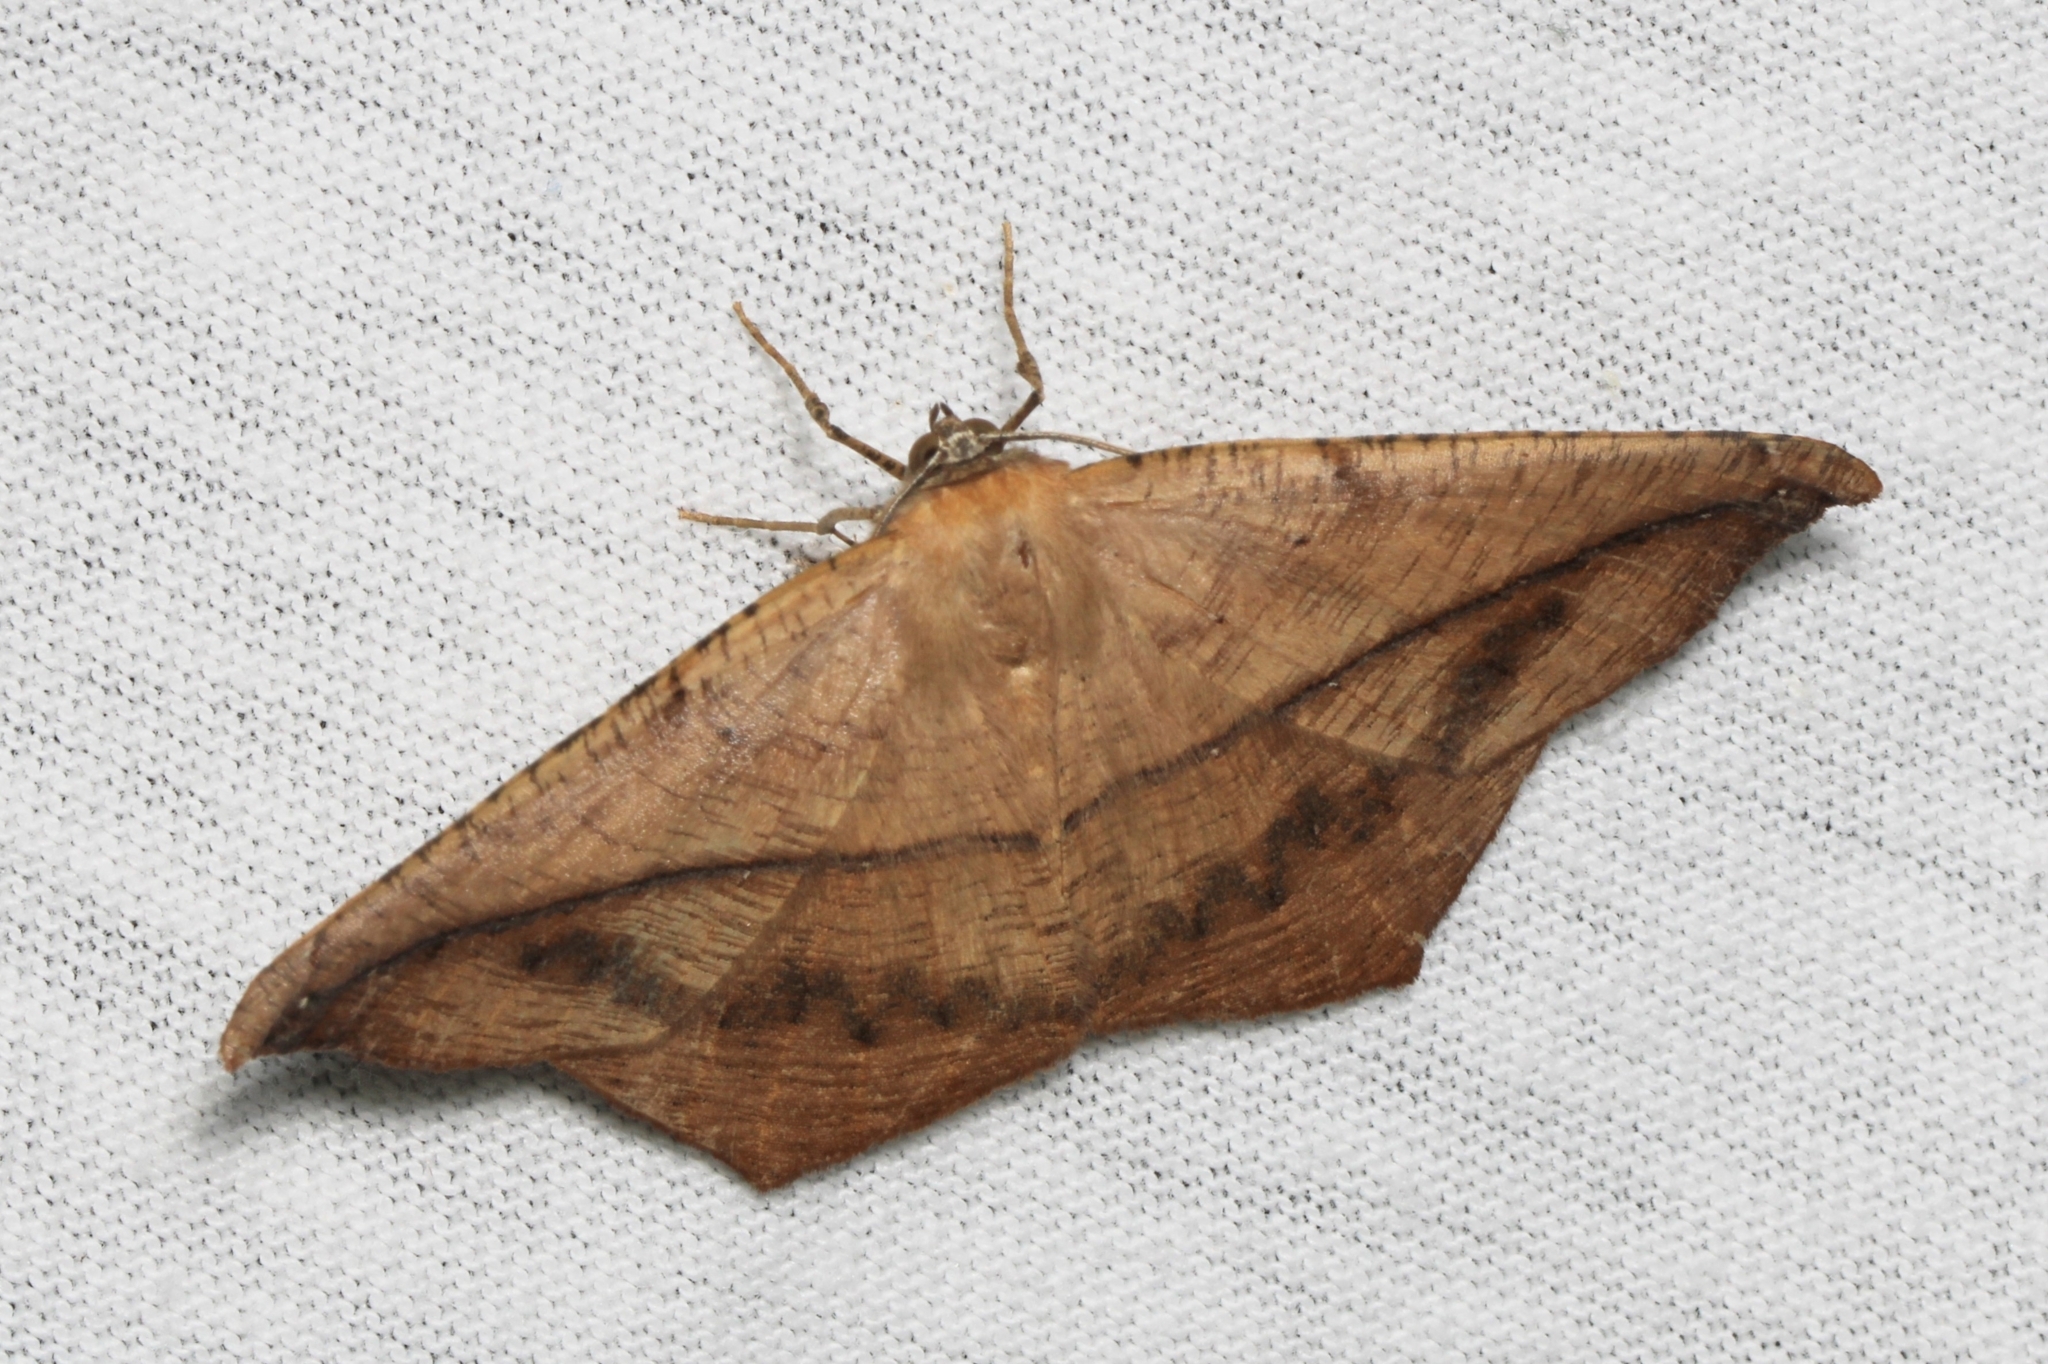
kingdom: Animalia
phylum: Arthropoda
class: Insecta
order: Lepidoptera
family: Geometridae
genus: Prochoerodes
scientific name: Prochoerodes lineola
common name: Large maple spanworm
